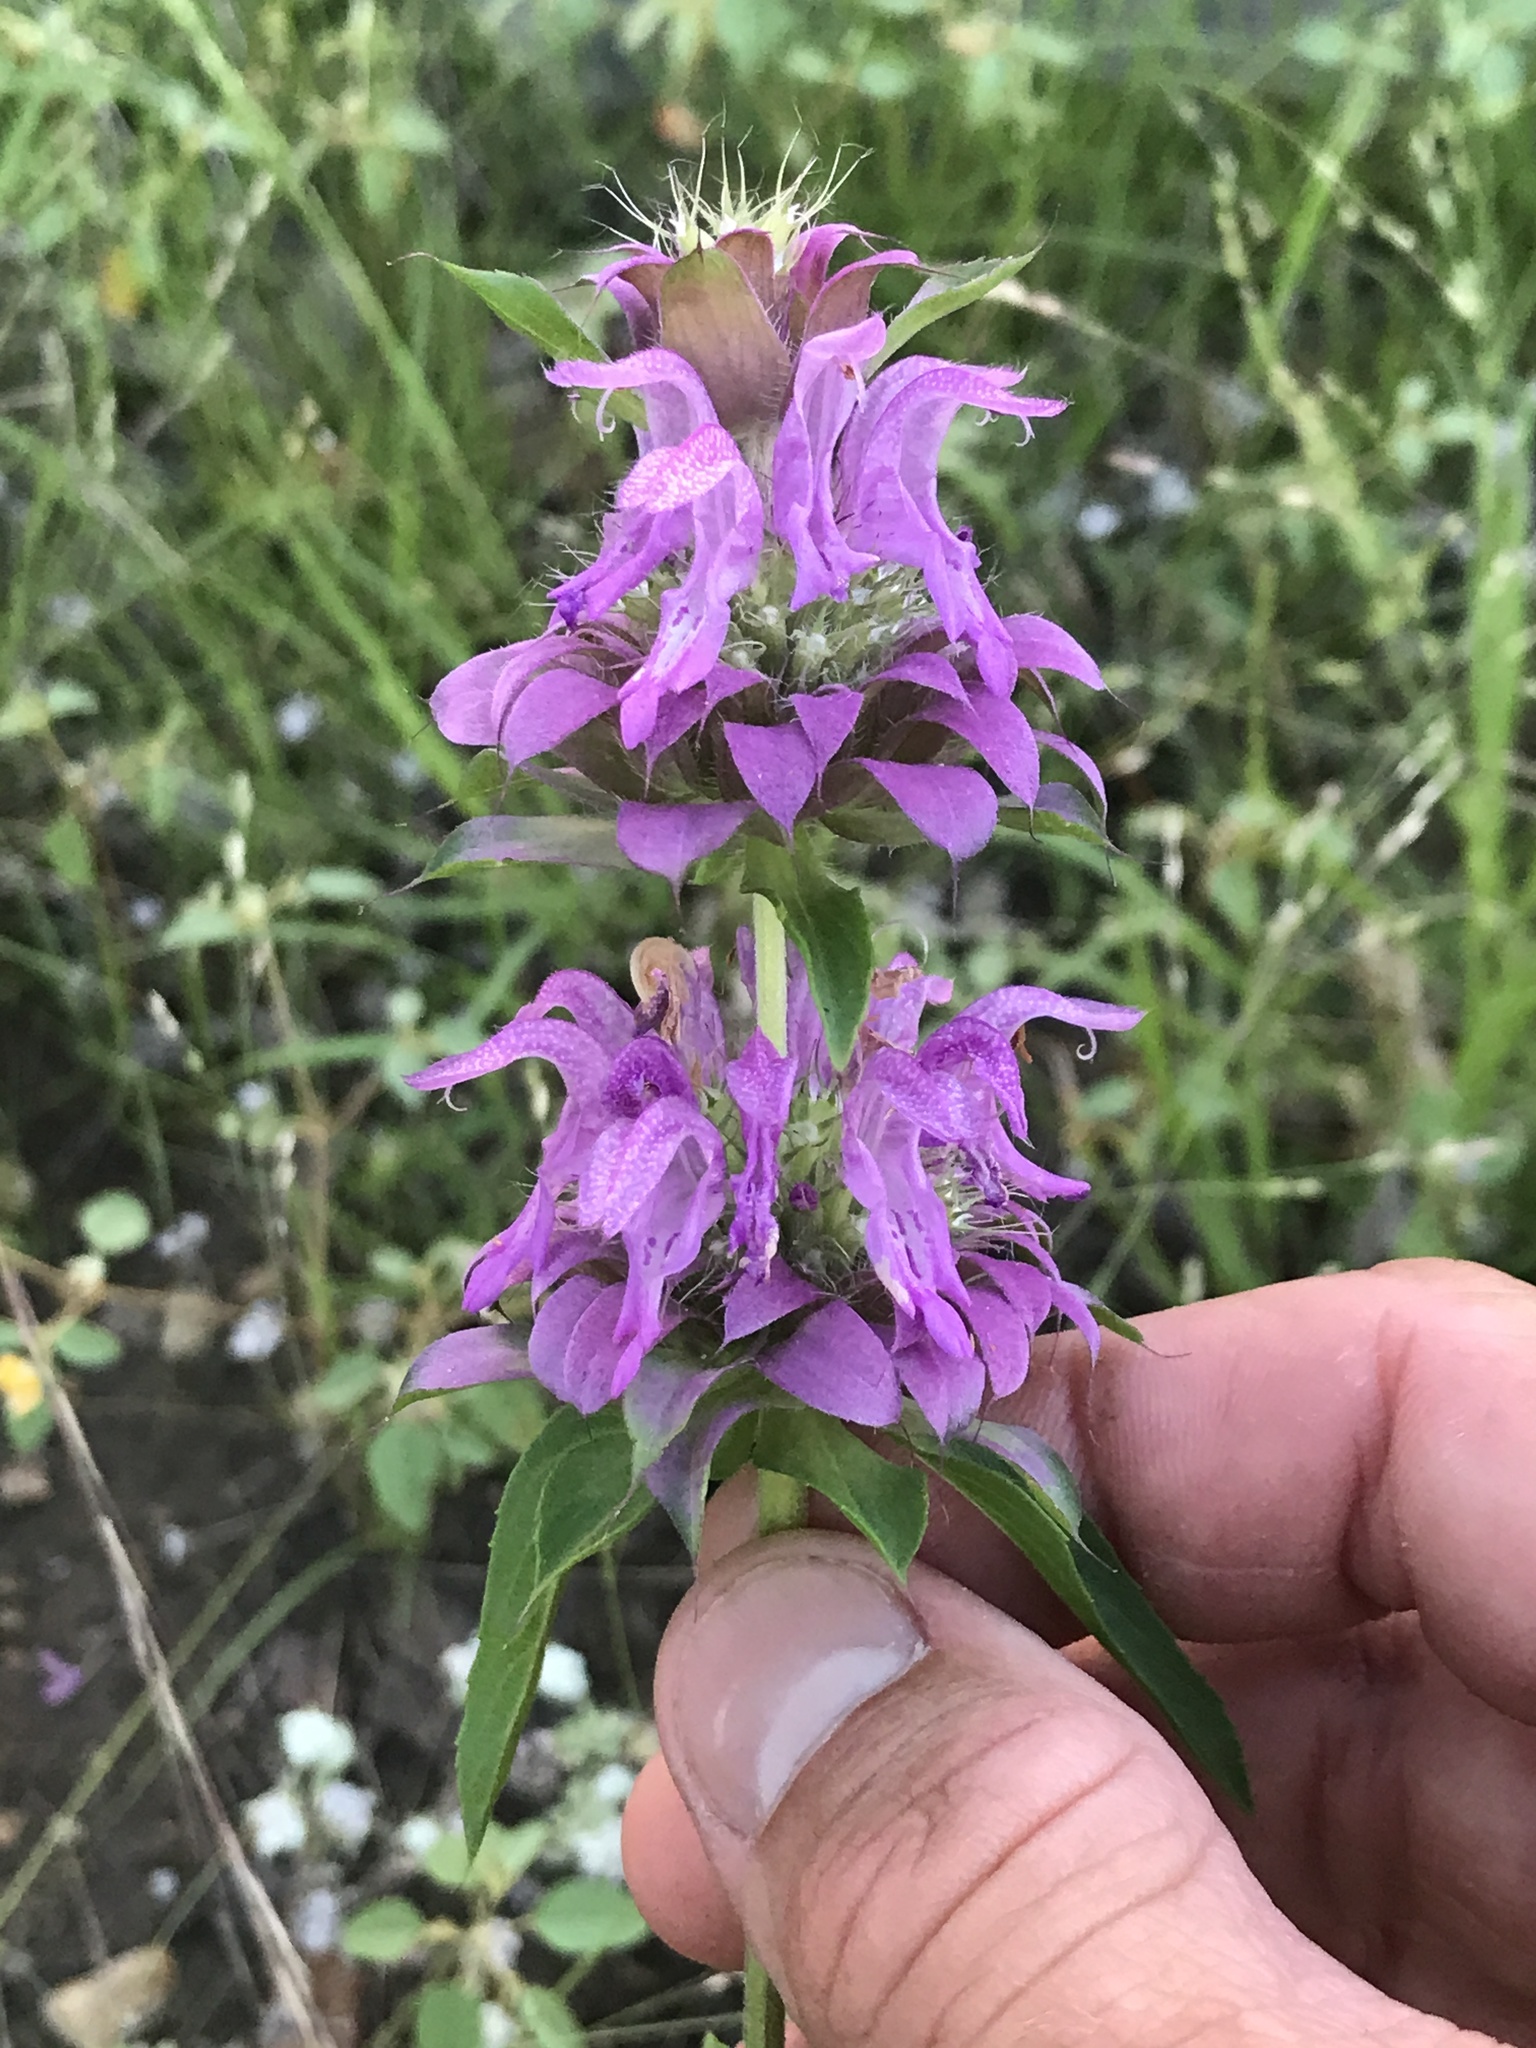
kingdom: Plantae
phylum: Tracheophyta
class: Magnoliopsida
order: Lamiales
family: Lamiaceae
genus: Monarda
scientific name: Monarda citriodora
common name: Lemon beebalm
